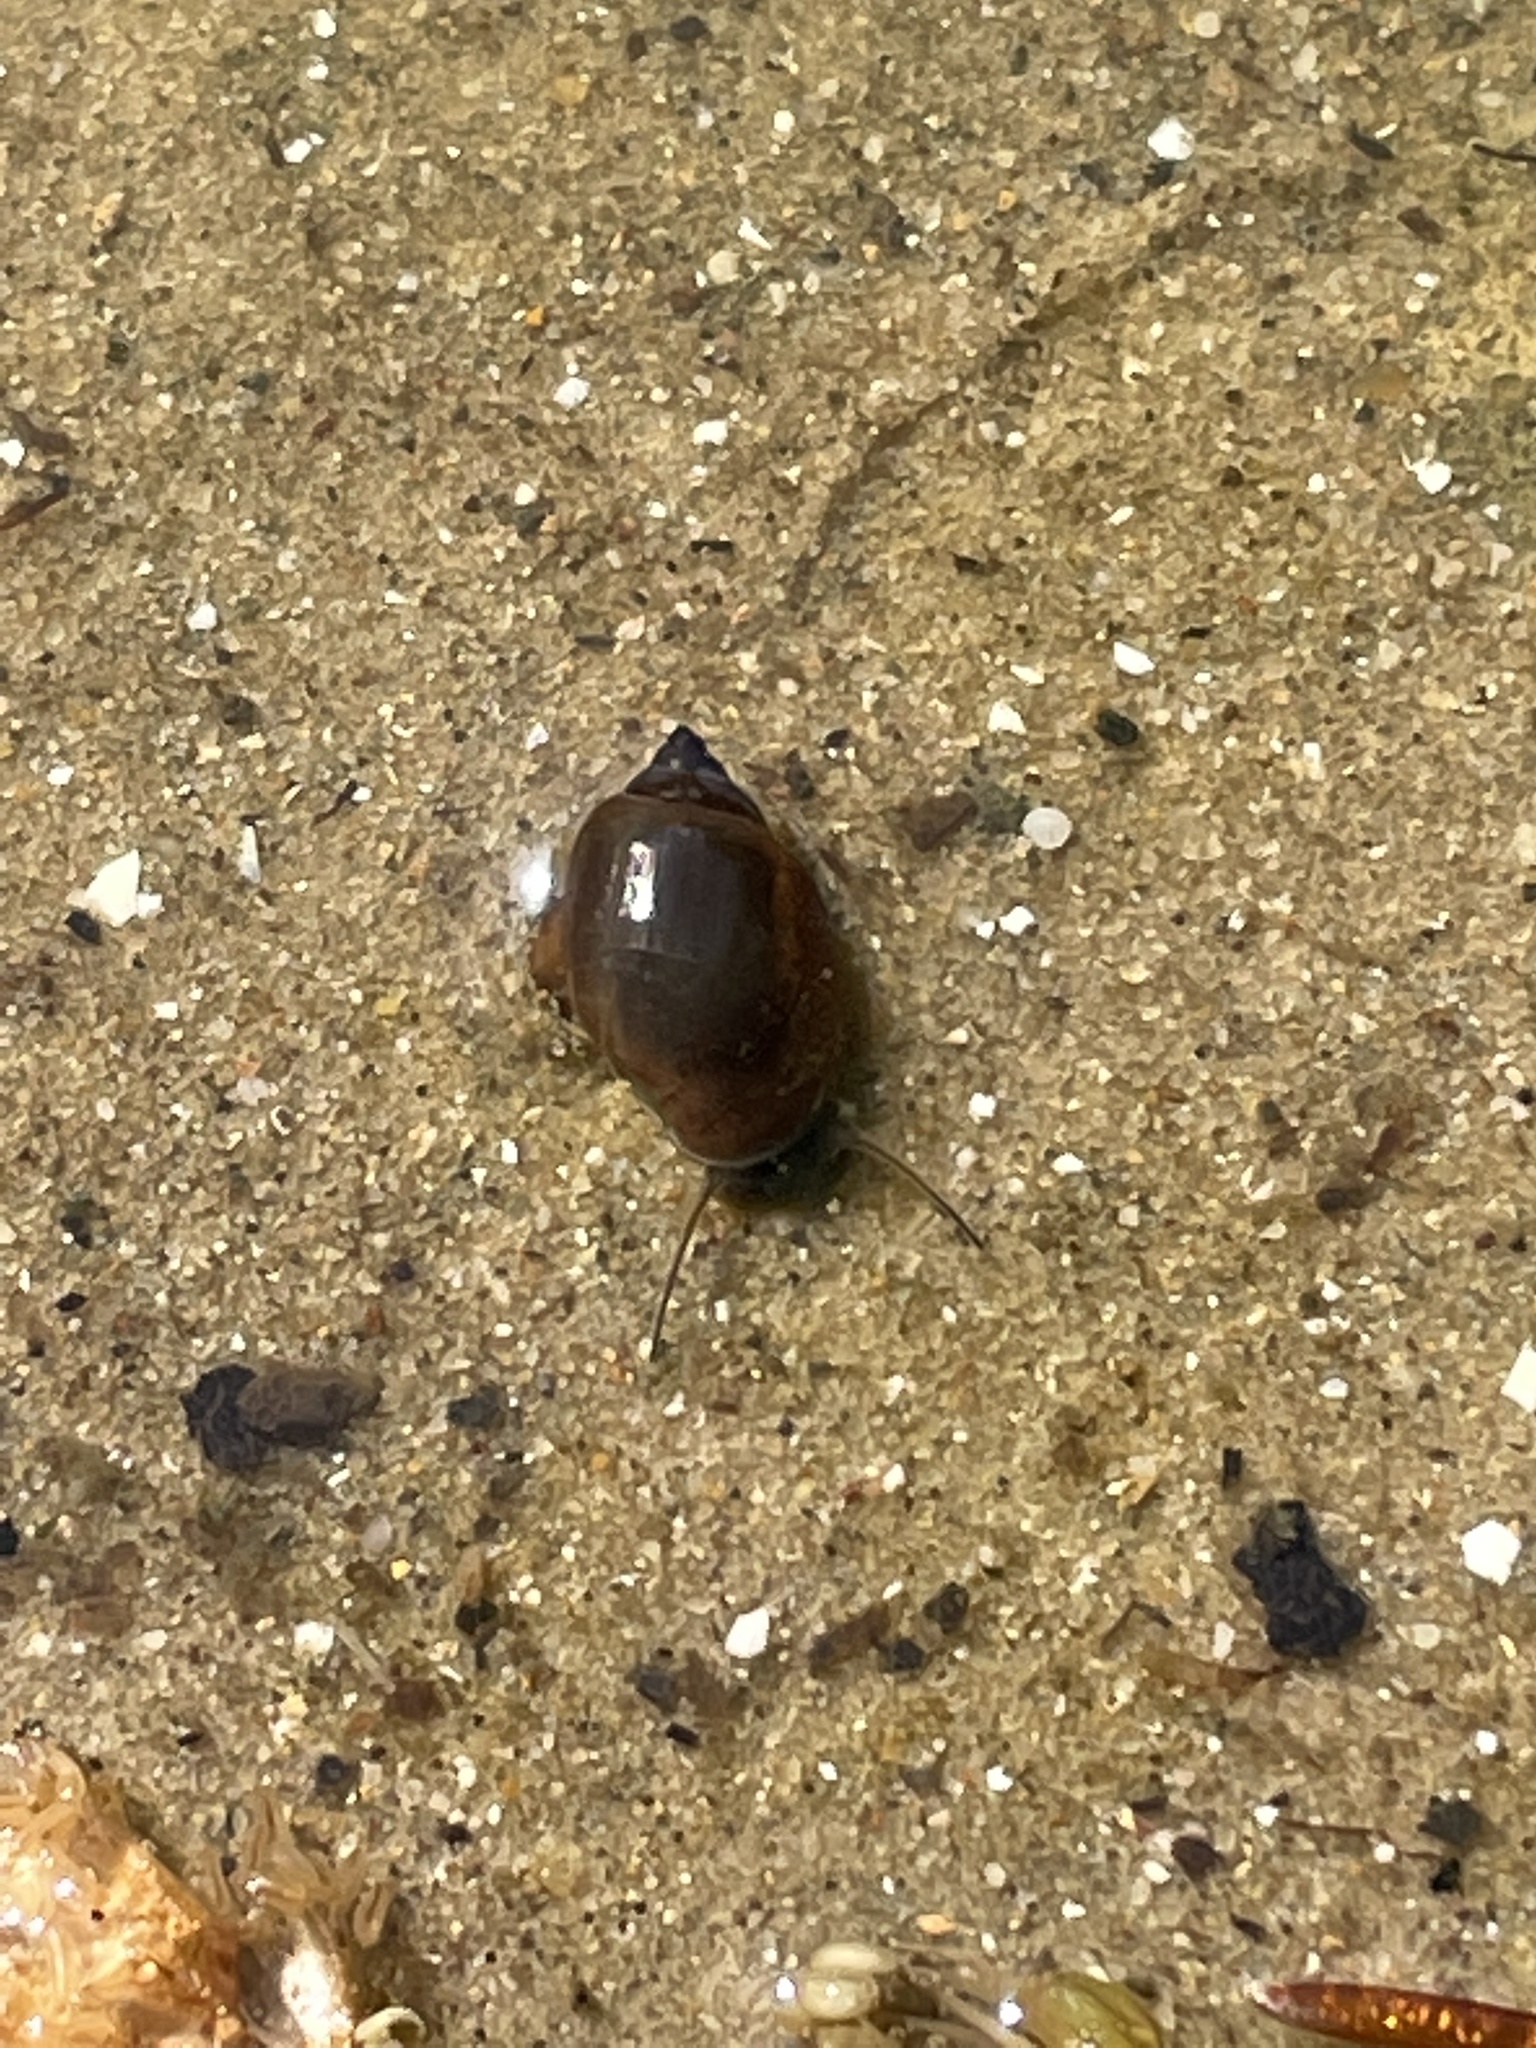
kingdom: Animalia
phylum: Mollusca
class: Gastropoda
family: Physidae
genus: Physella
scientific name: Physella acuta
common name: European physa
